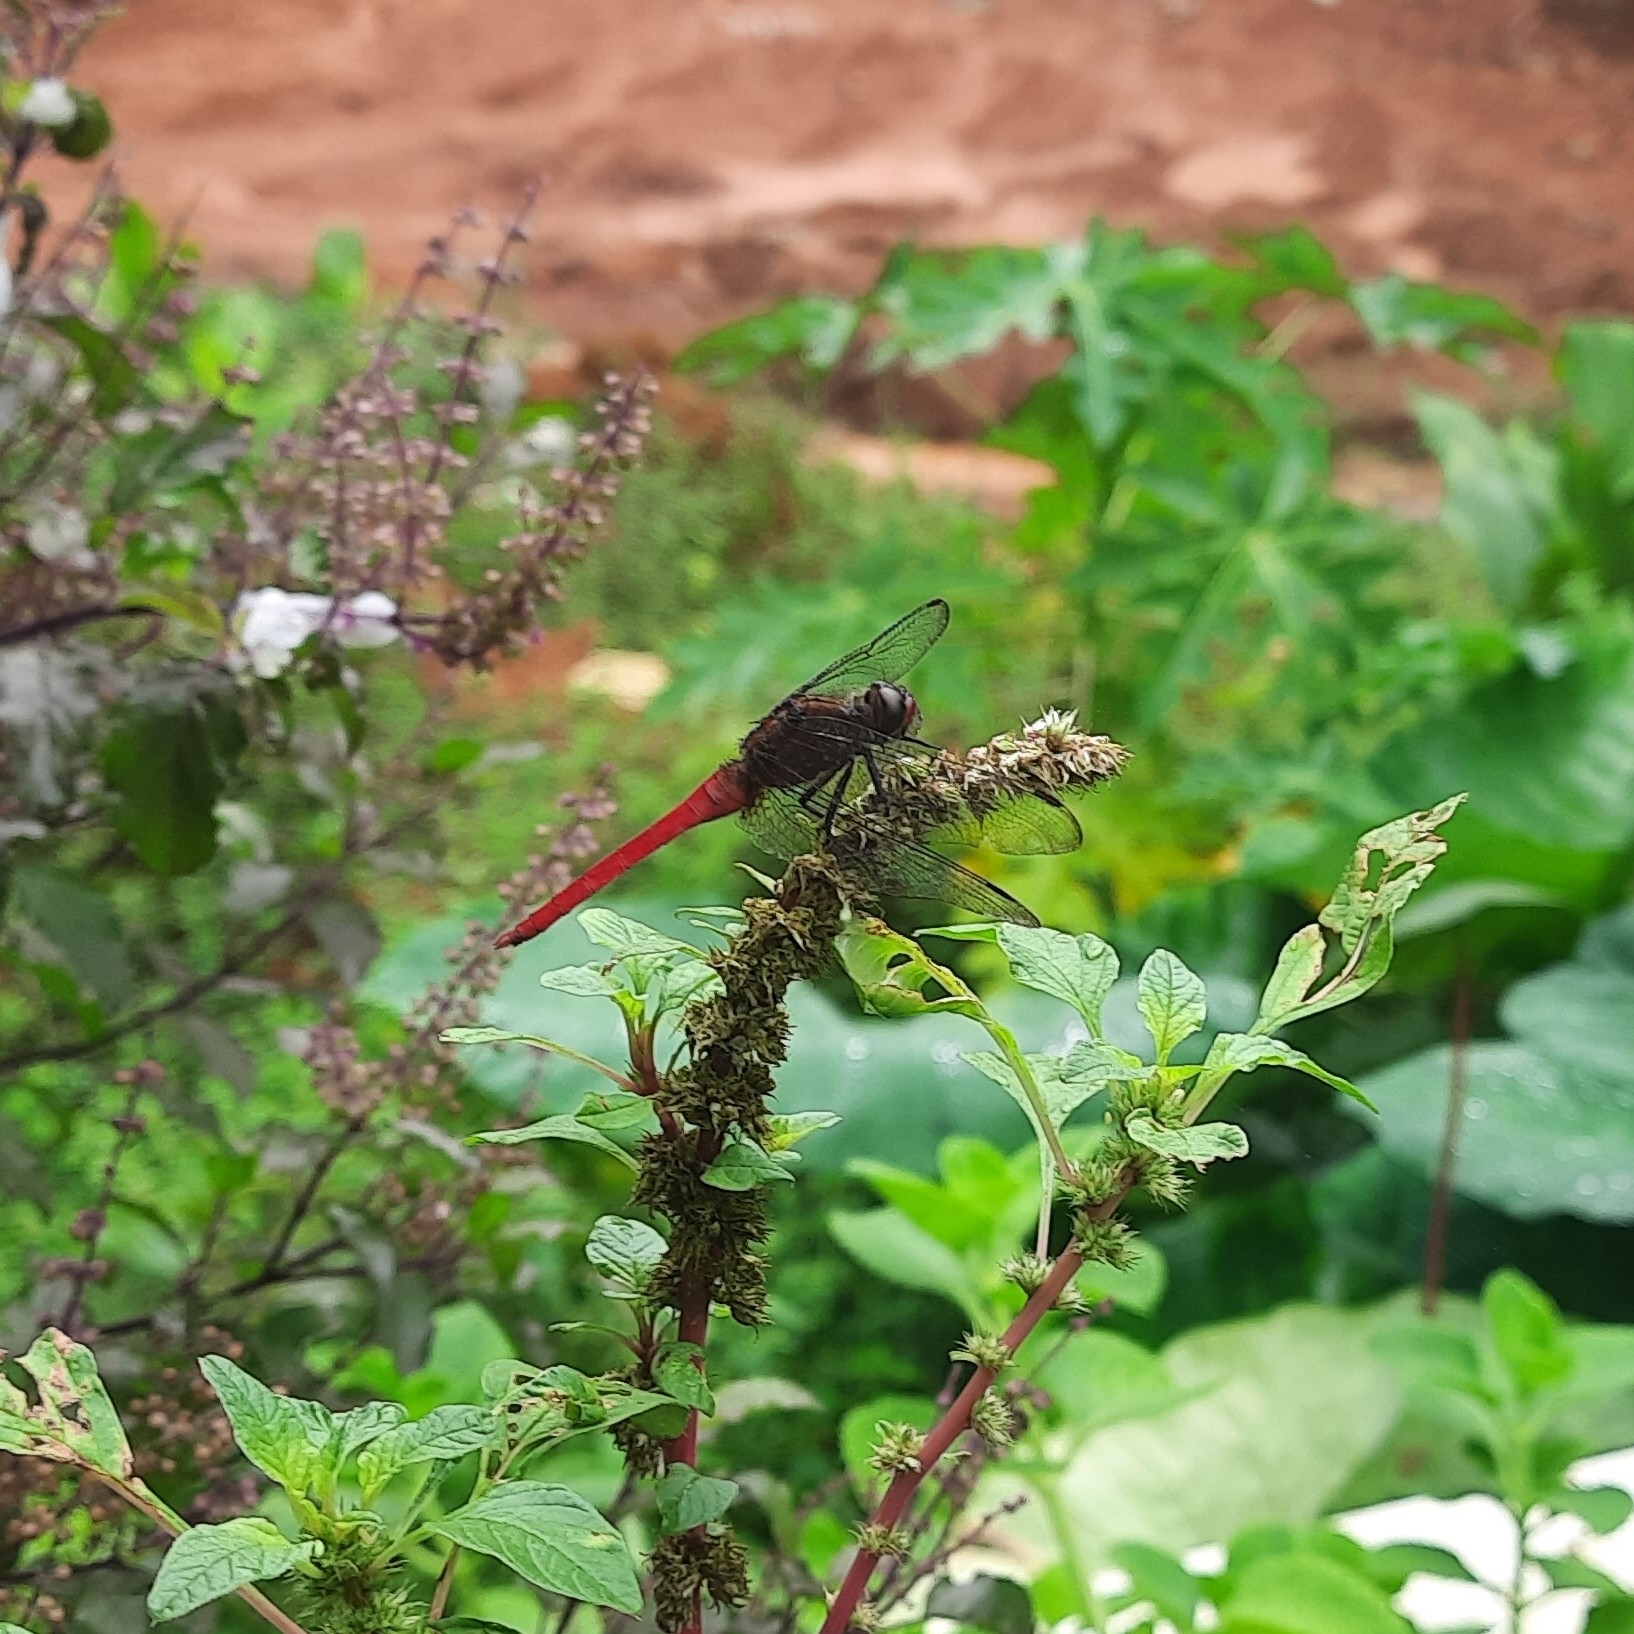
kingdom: Animalia
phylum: Arthropoda
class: Insecta
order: Odonata
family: Libellulidae
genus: Orthetrum
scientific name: Orthetrum chrysis
